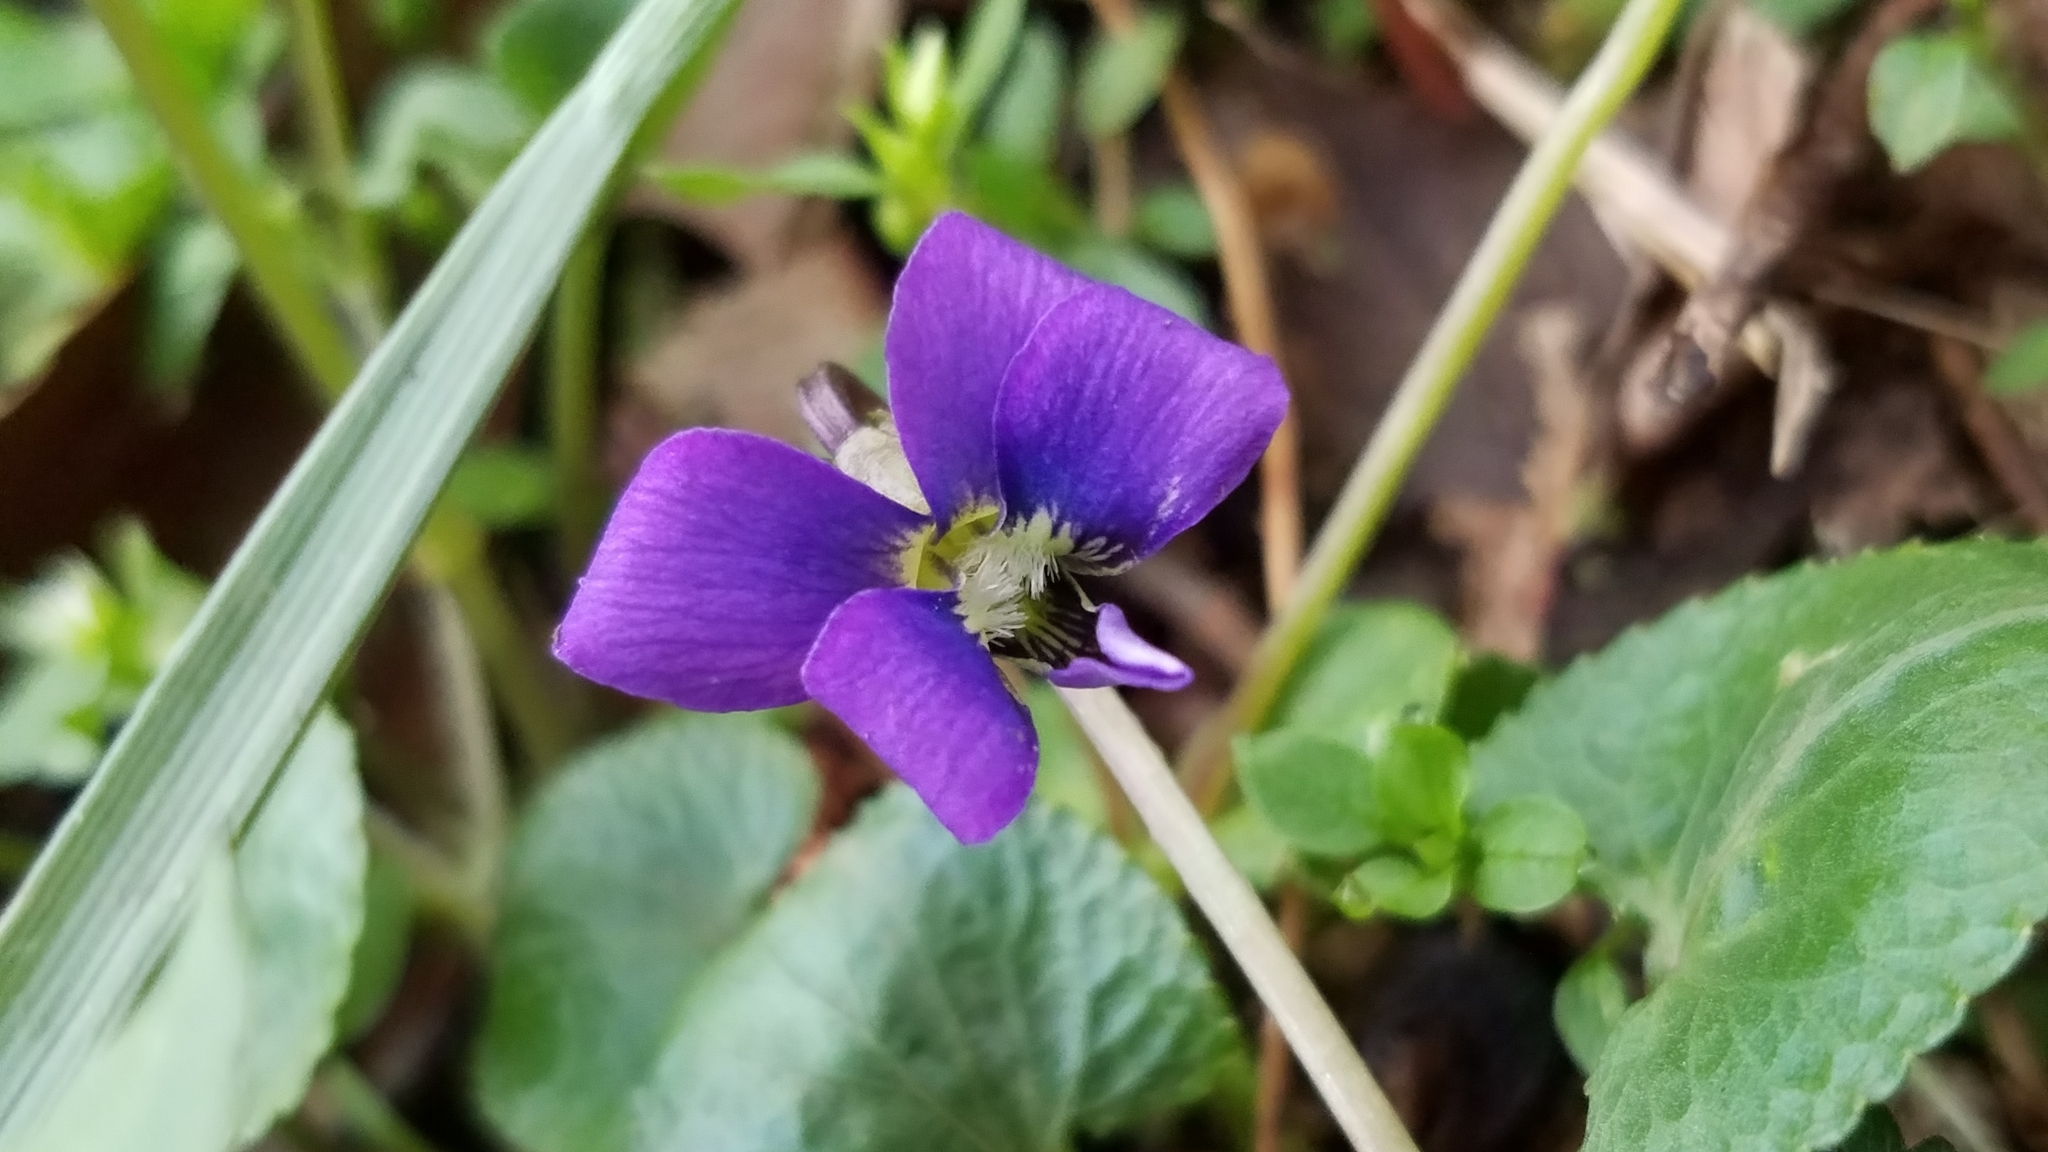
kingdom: Plantae
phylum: Tracheophyta
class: Magnoliopsida
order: Malpighiales
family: Violaceae
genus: Viola
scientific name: Viola sororia
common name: Dooryard violet
